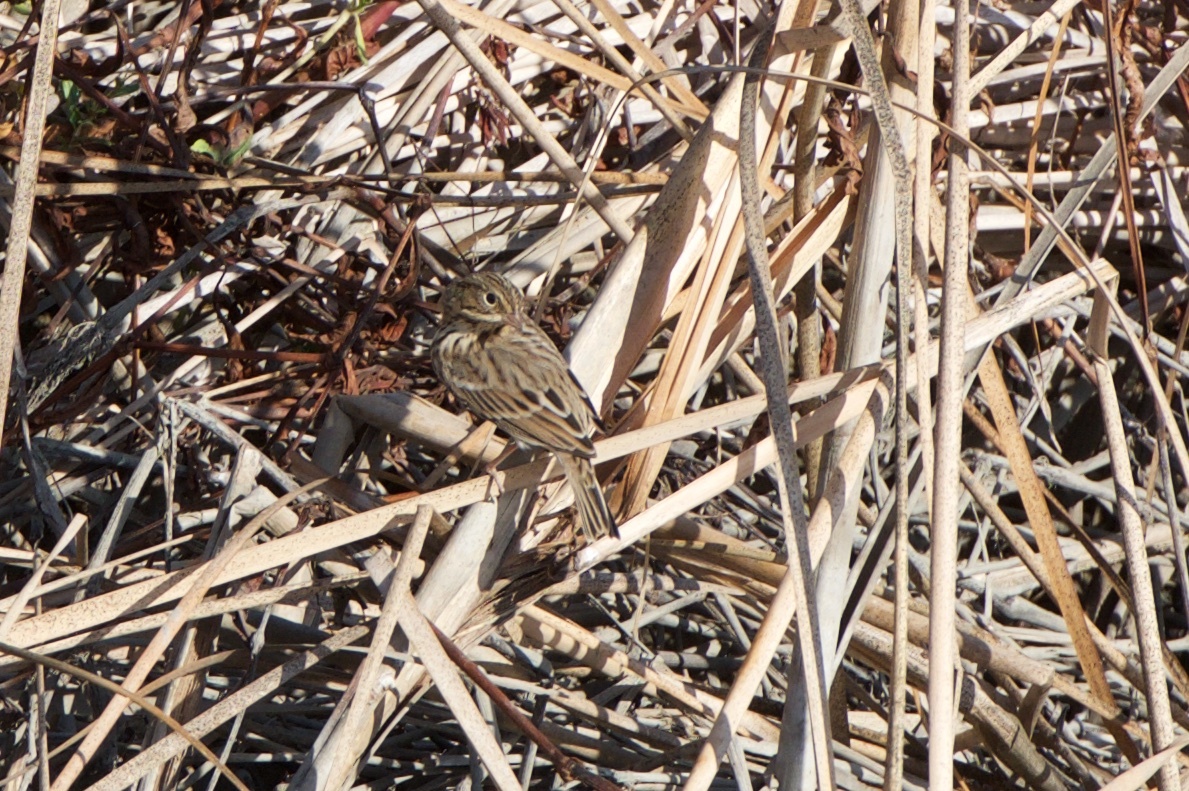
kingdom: Animalia
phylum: Chordata
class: Aves
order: Passeriformes
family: Passerellidae
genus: Pooecetes
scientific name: Pooecetes gramineus
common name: Vesper sparrow
